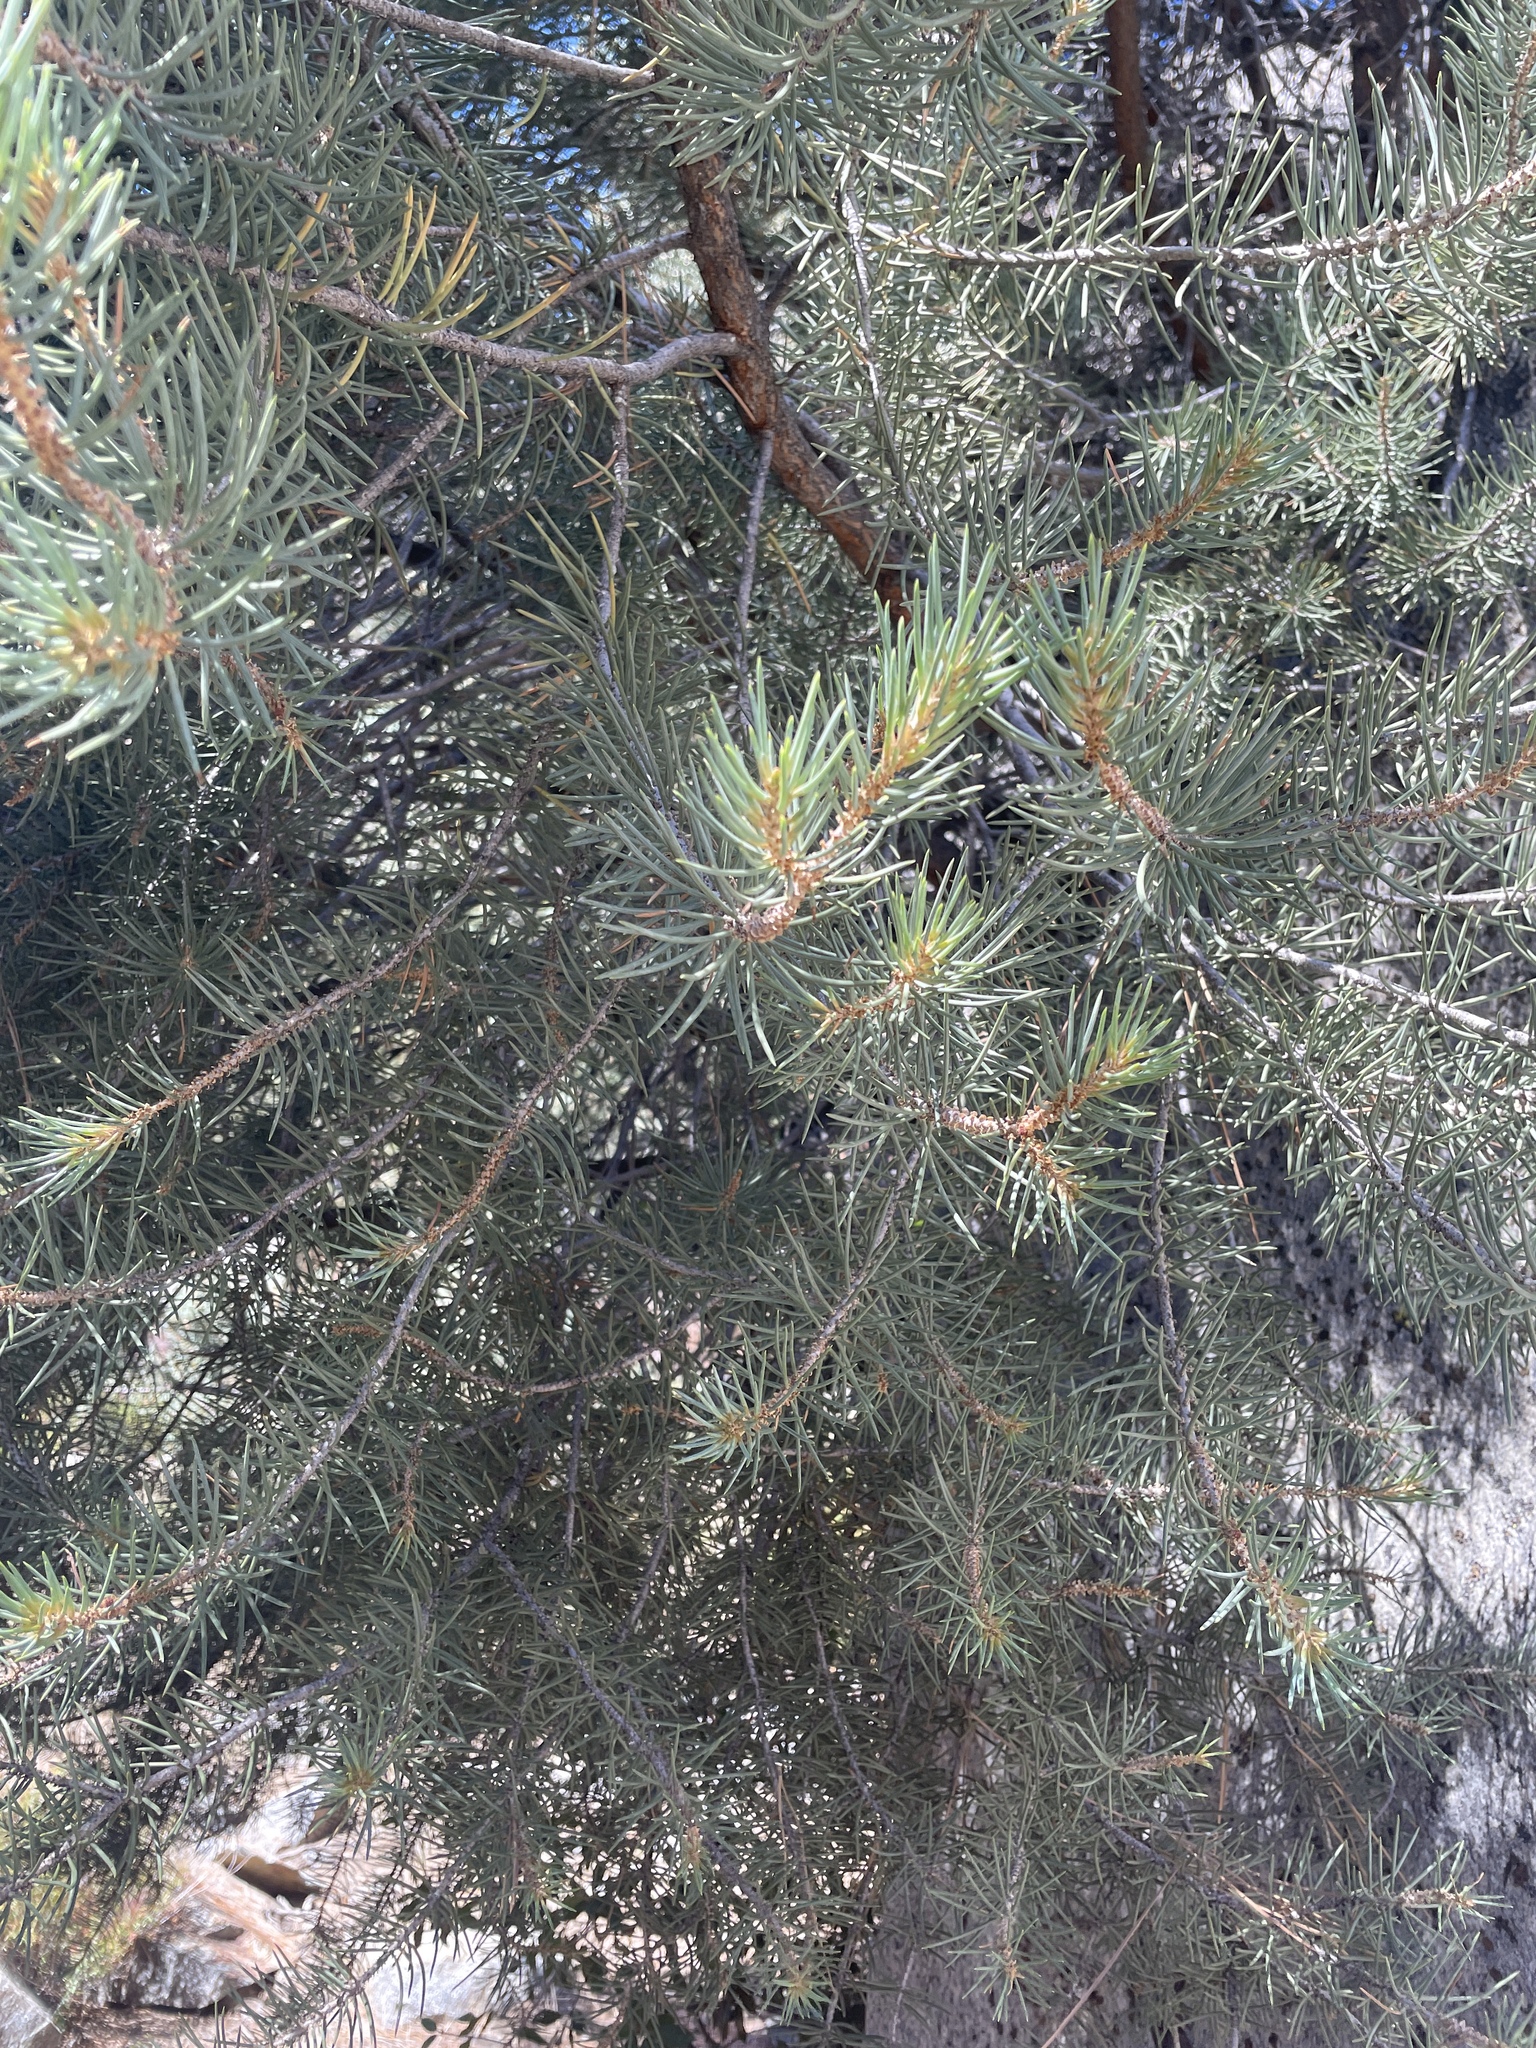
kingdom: Plantae
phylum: Tracheophyta
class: Pinopsida
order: Pinales
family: Pinaceae
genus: Pinus
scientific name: Pinus monophylla
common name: One-leaved nut pine
